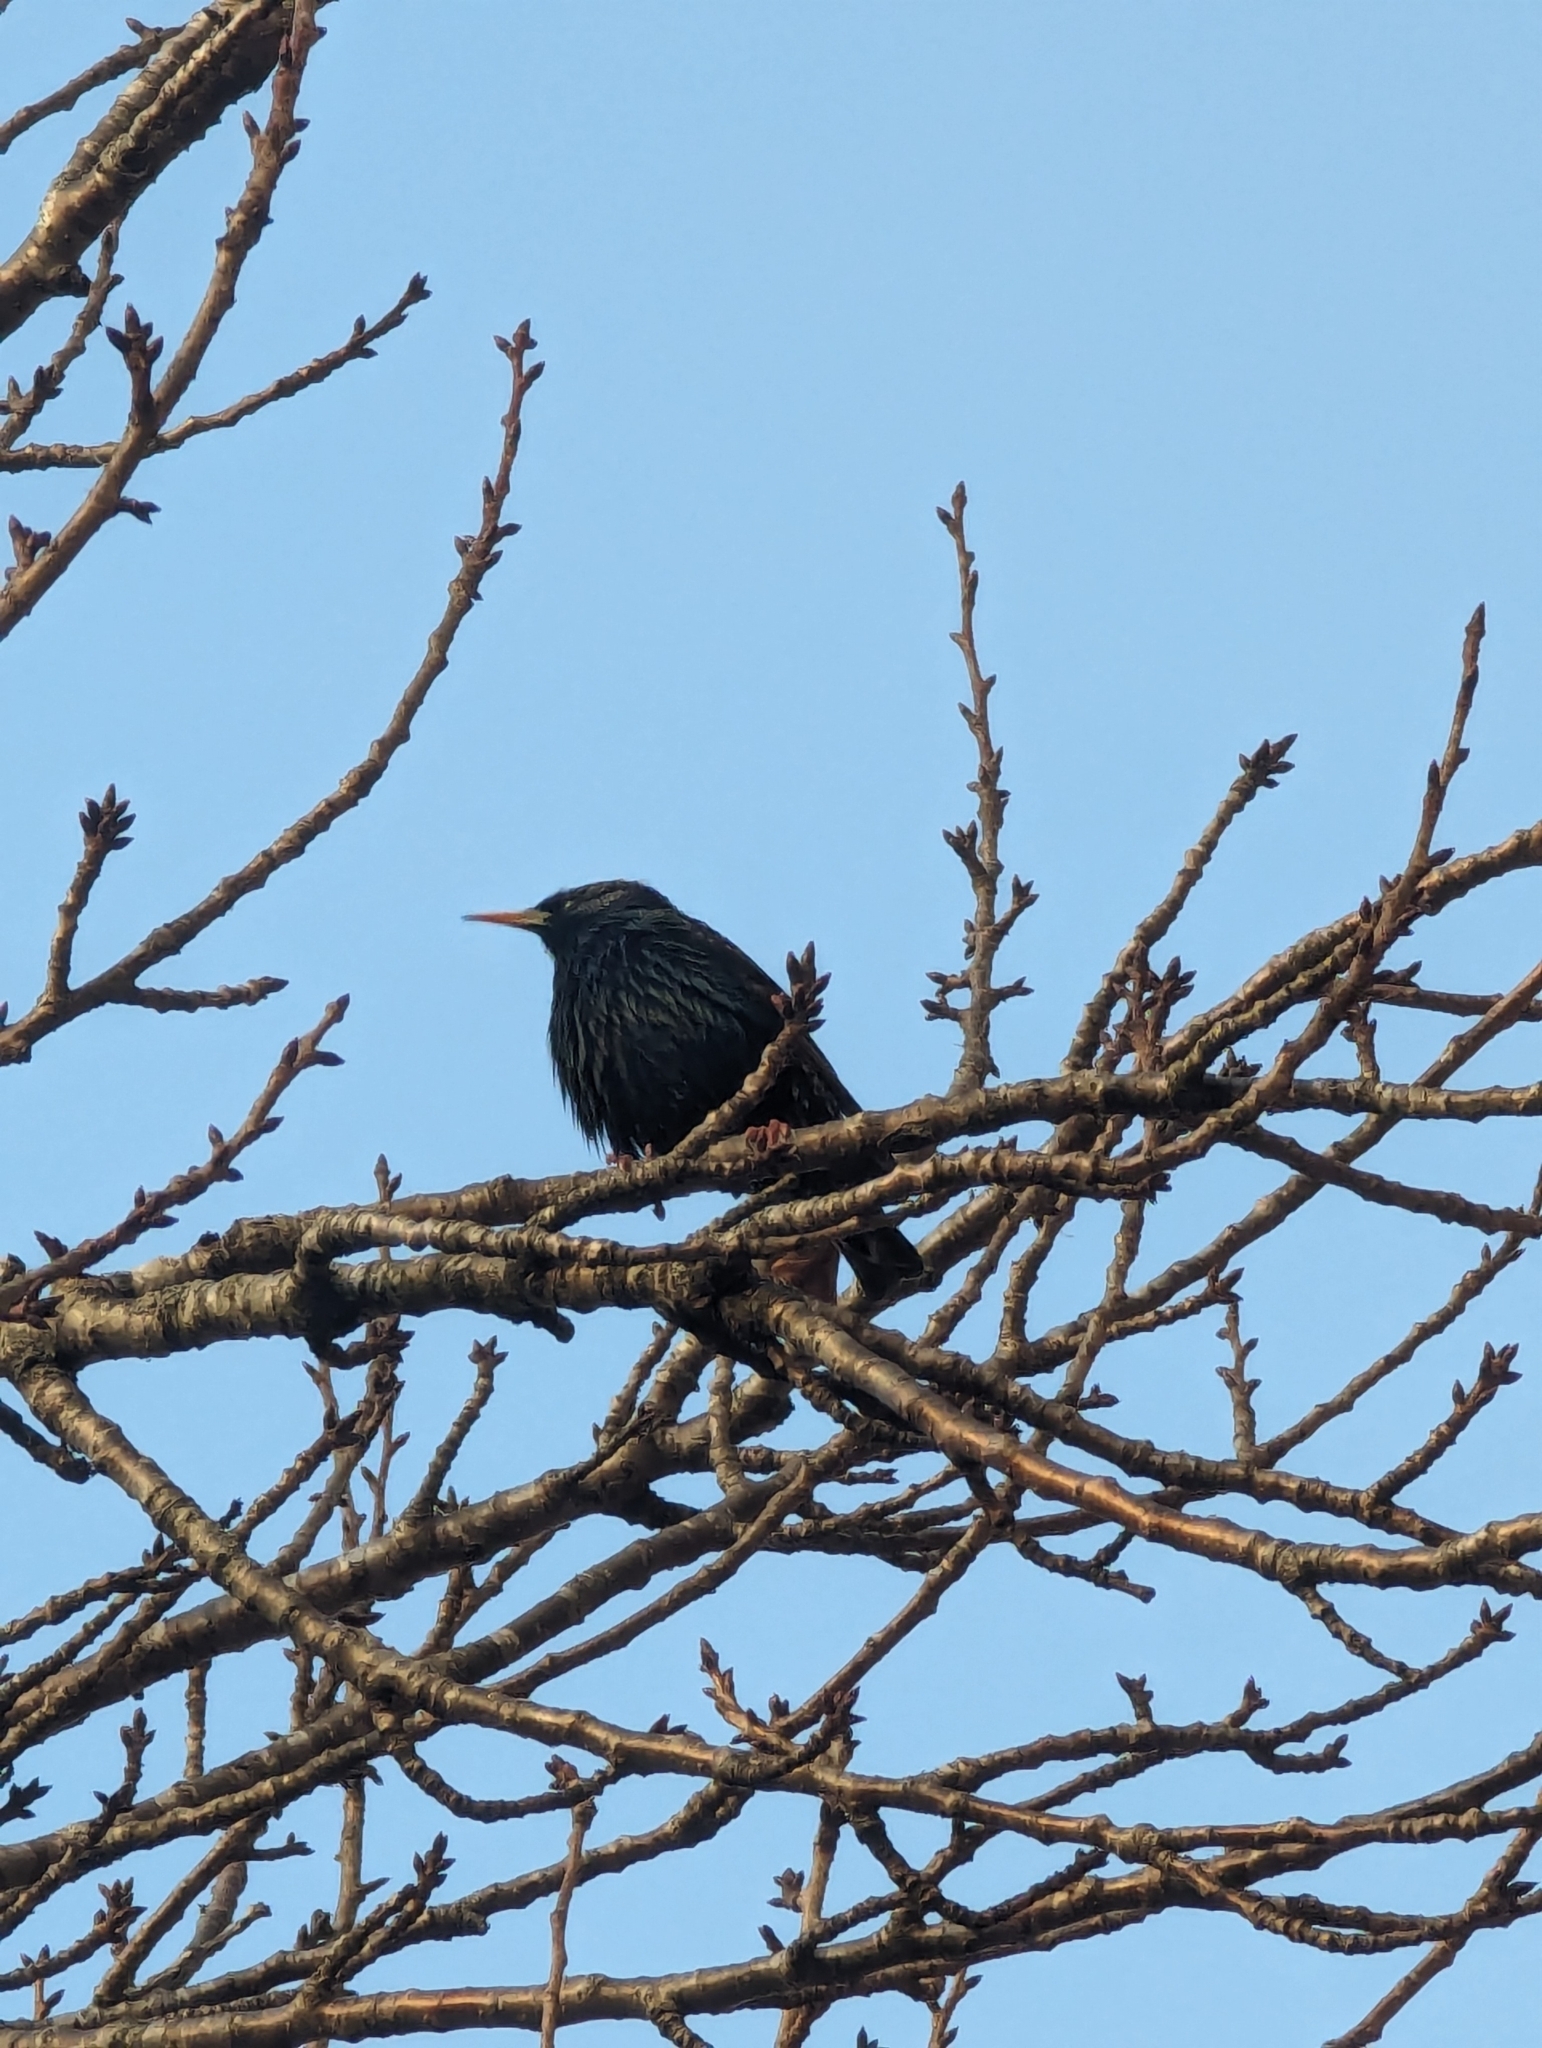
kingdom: Animalia
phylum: Chordata
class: Aves
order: Passeriformes
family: Sturnidae
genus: Sturnus
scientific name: Sturnus vulgaris
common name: Common starling
